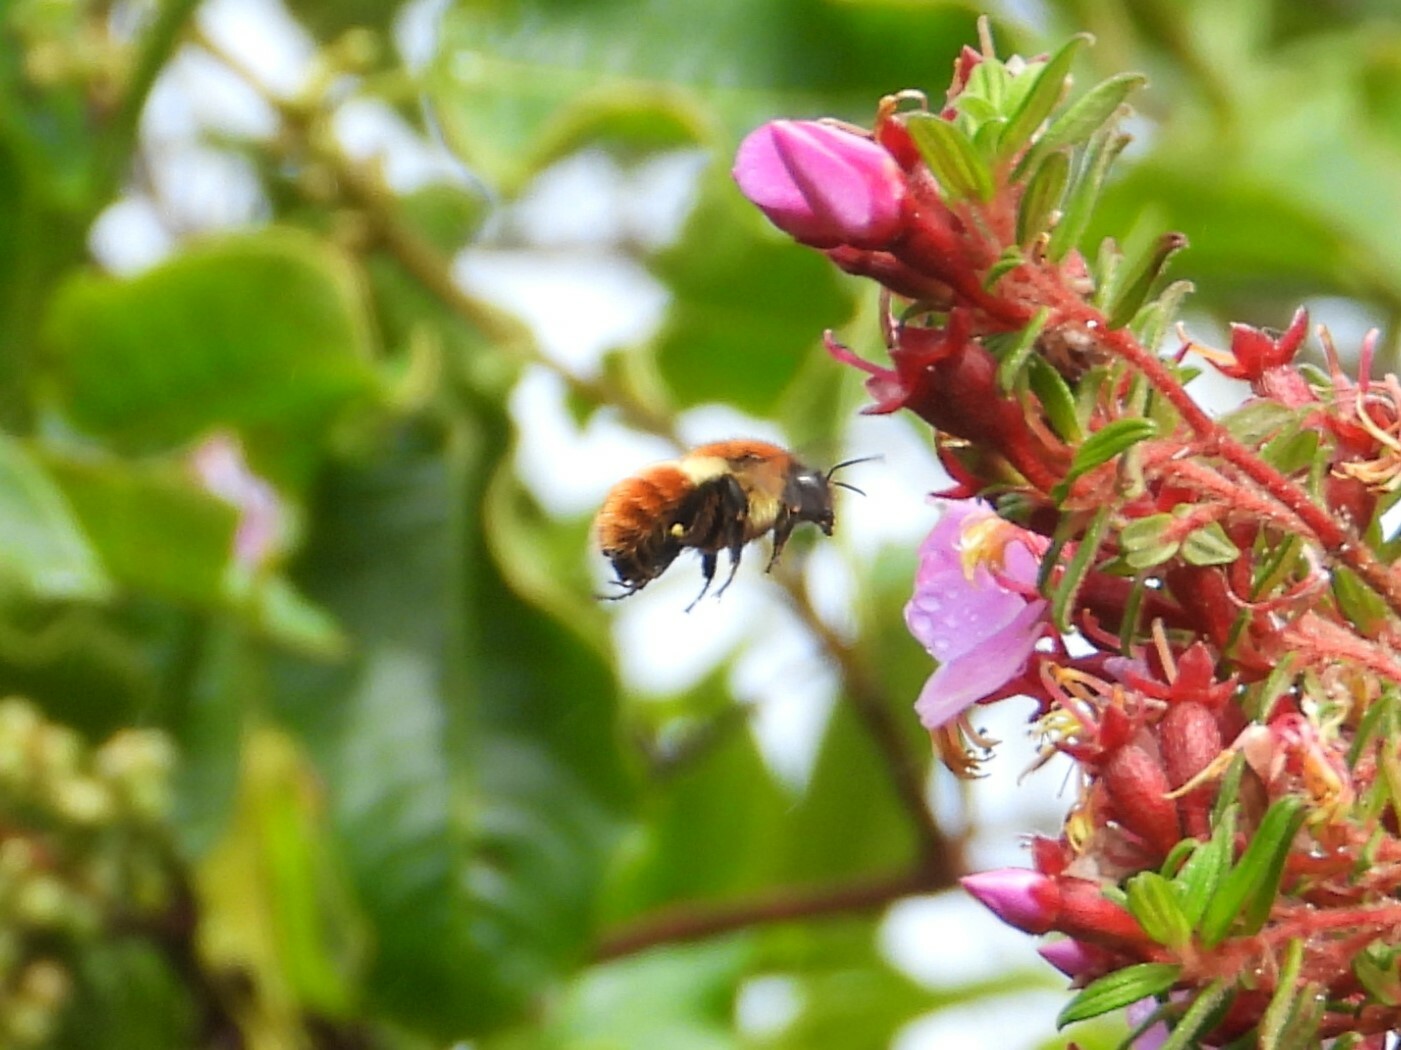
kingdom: Animalia
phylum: Arthropoda
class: Insecta
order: Hymenoptera
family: Apidae
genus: Bombus
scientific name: Bombus ephippiatus
